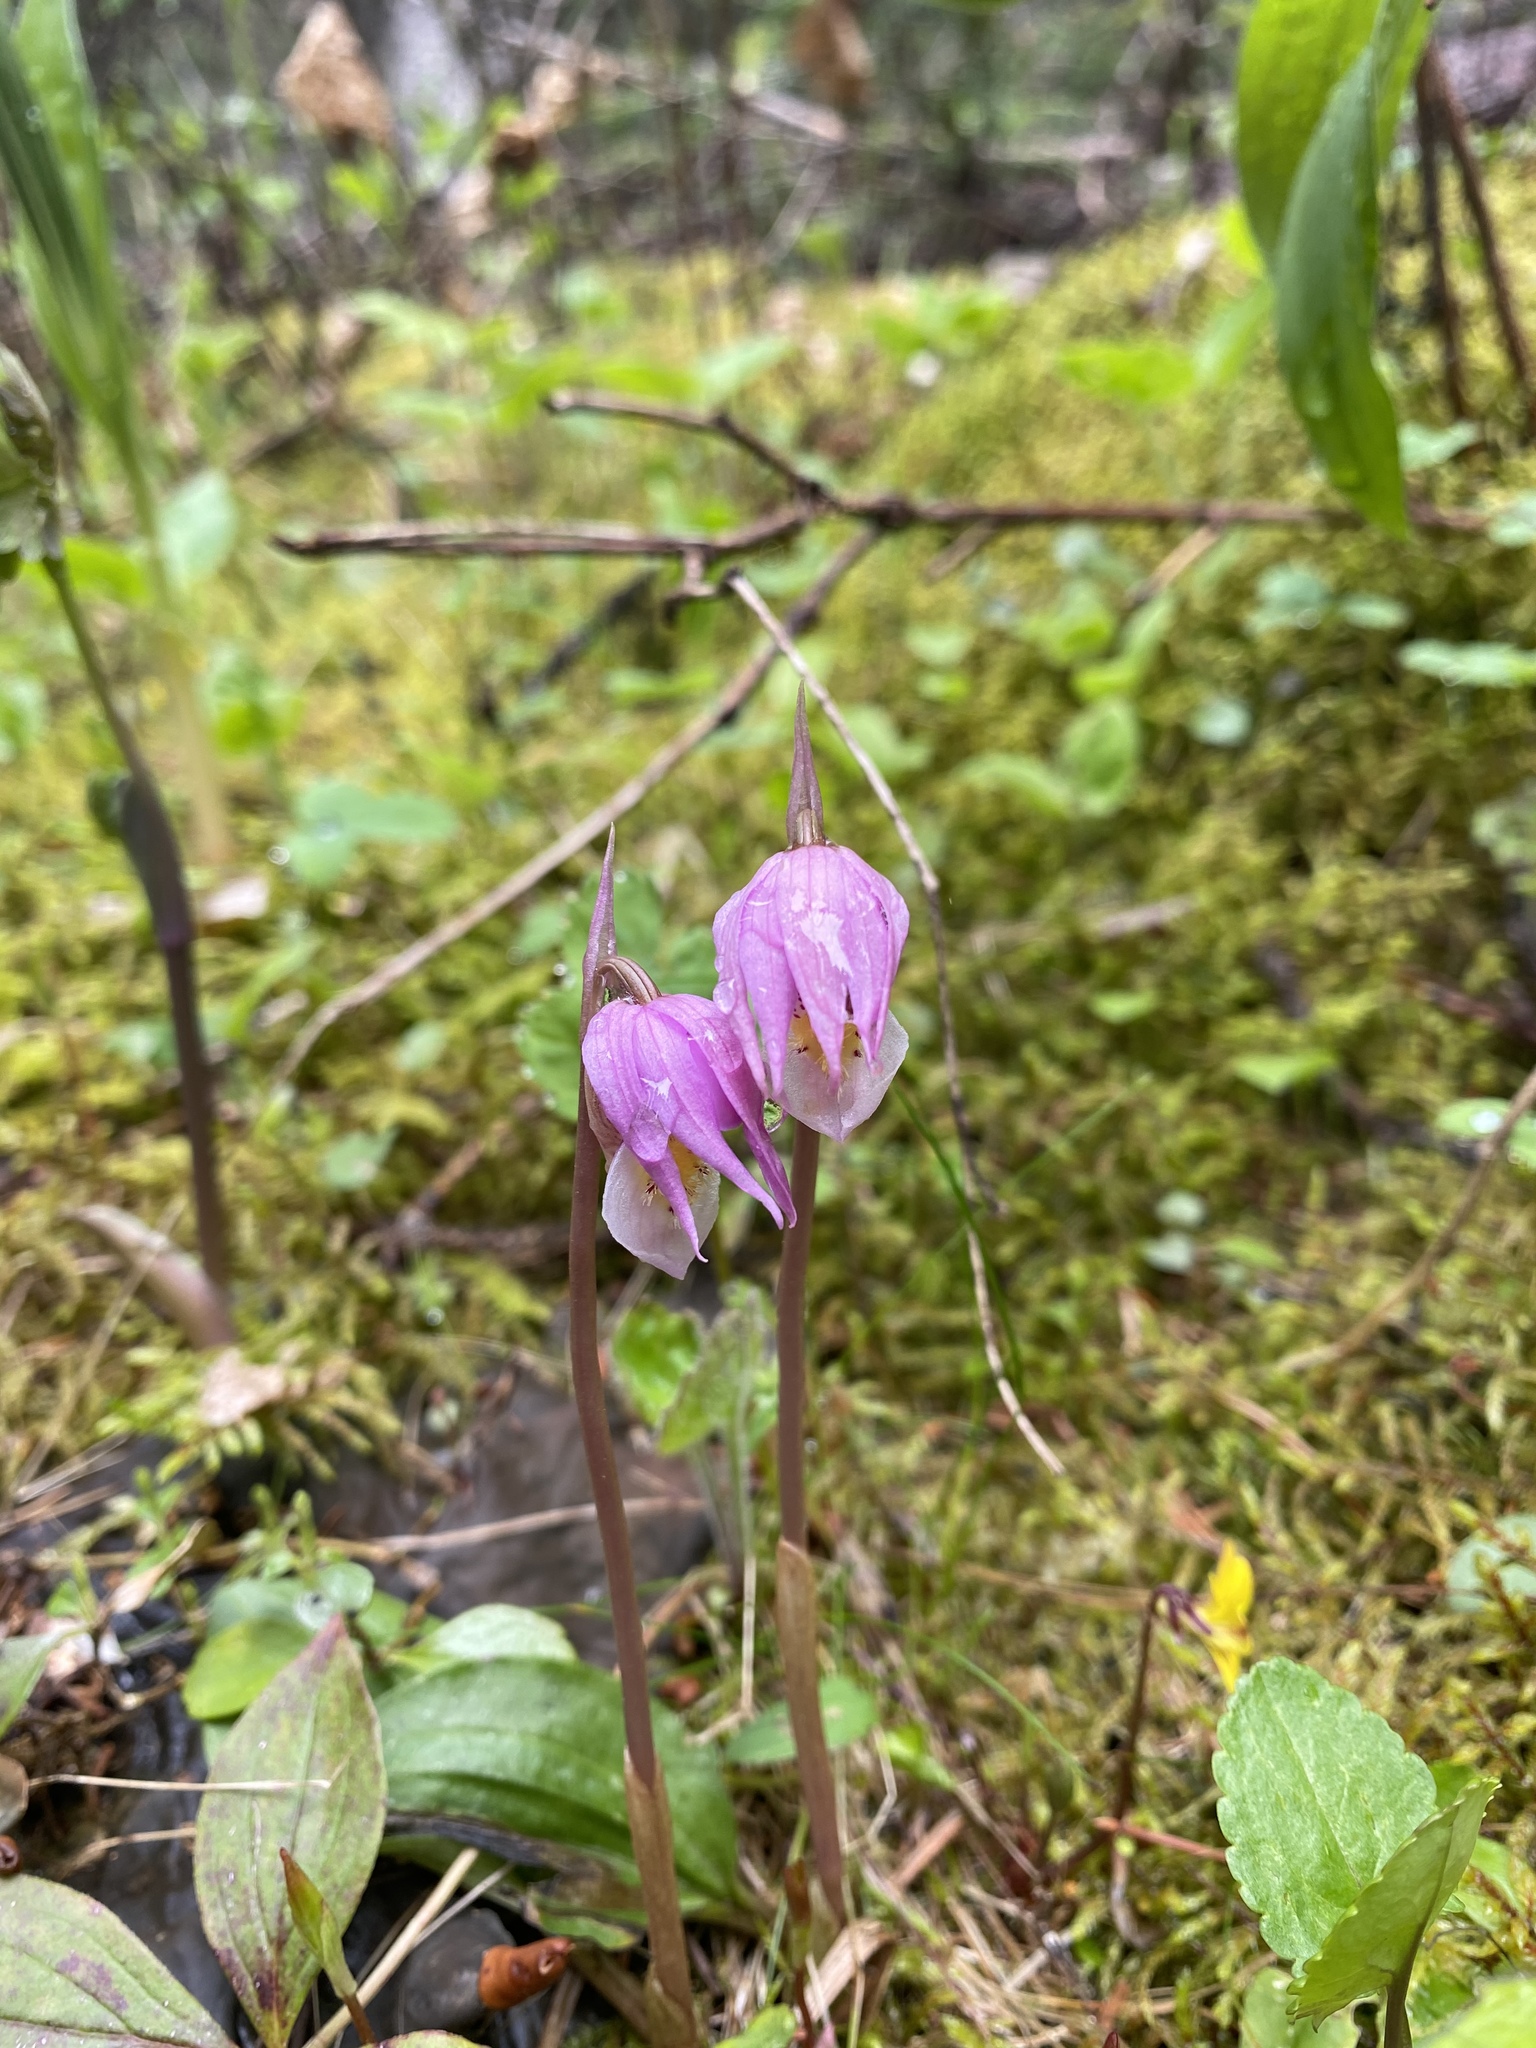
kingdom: Plantae
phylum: Tracheophyta
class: Liliopsida
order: Asparagales
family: Orchidaceae
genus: Calypso
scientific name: Calypso bulbosa
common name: Calypso
